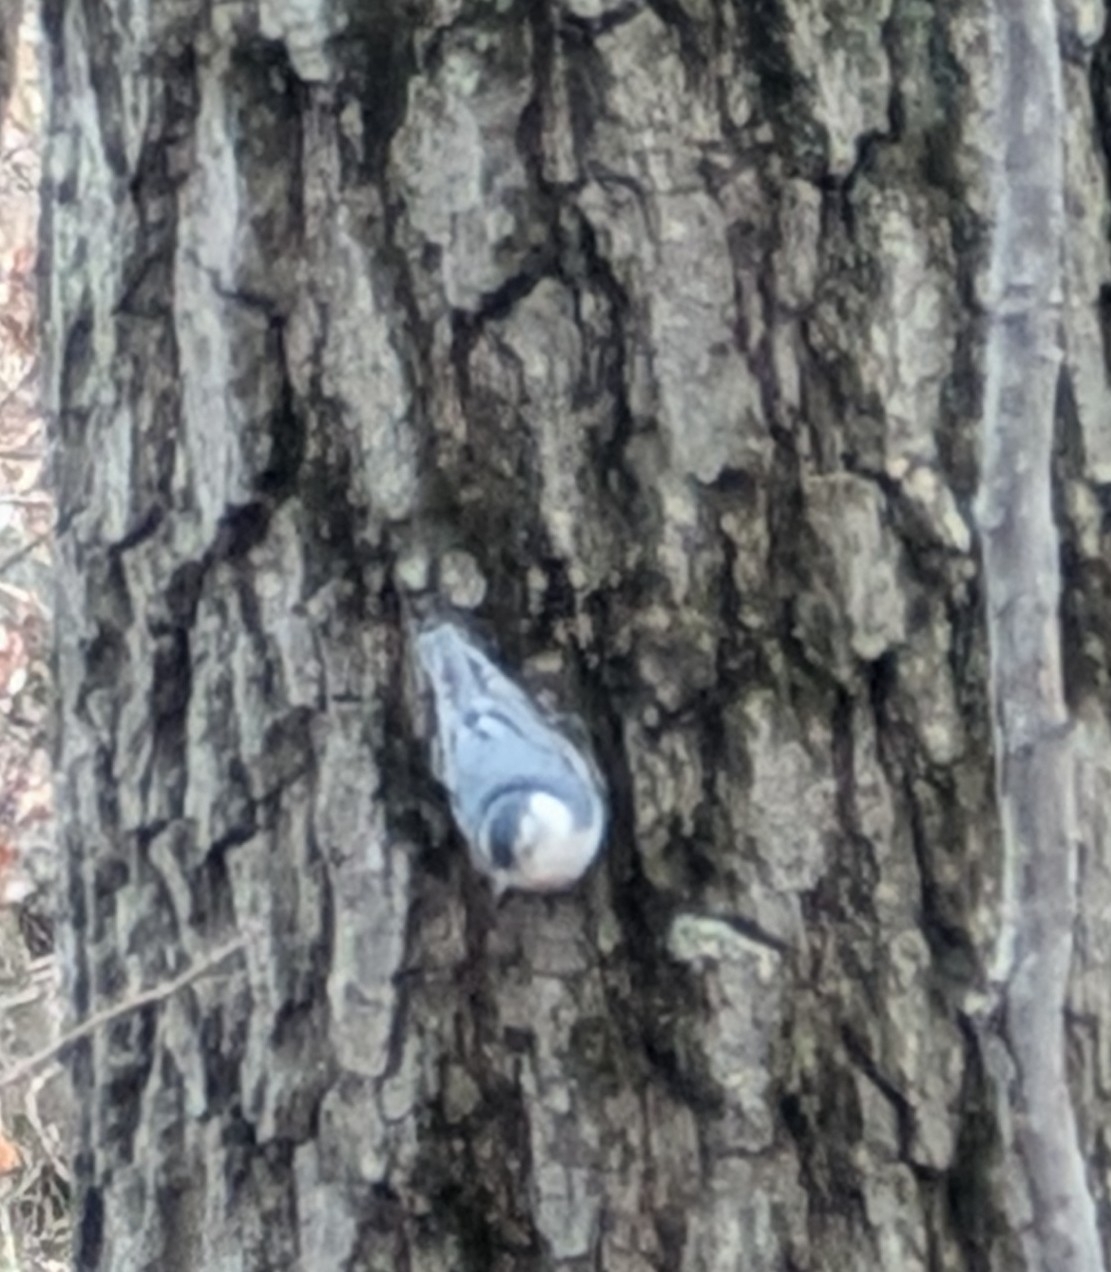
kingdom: Animalia
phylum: Chordata
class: Aves
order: Passeriformes
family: Sittidae
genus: Sitta
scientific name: Sitta carolinensis
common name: White-breasted nuthatch
